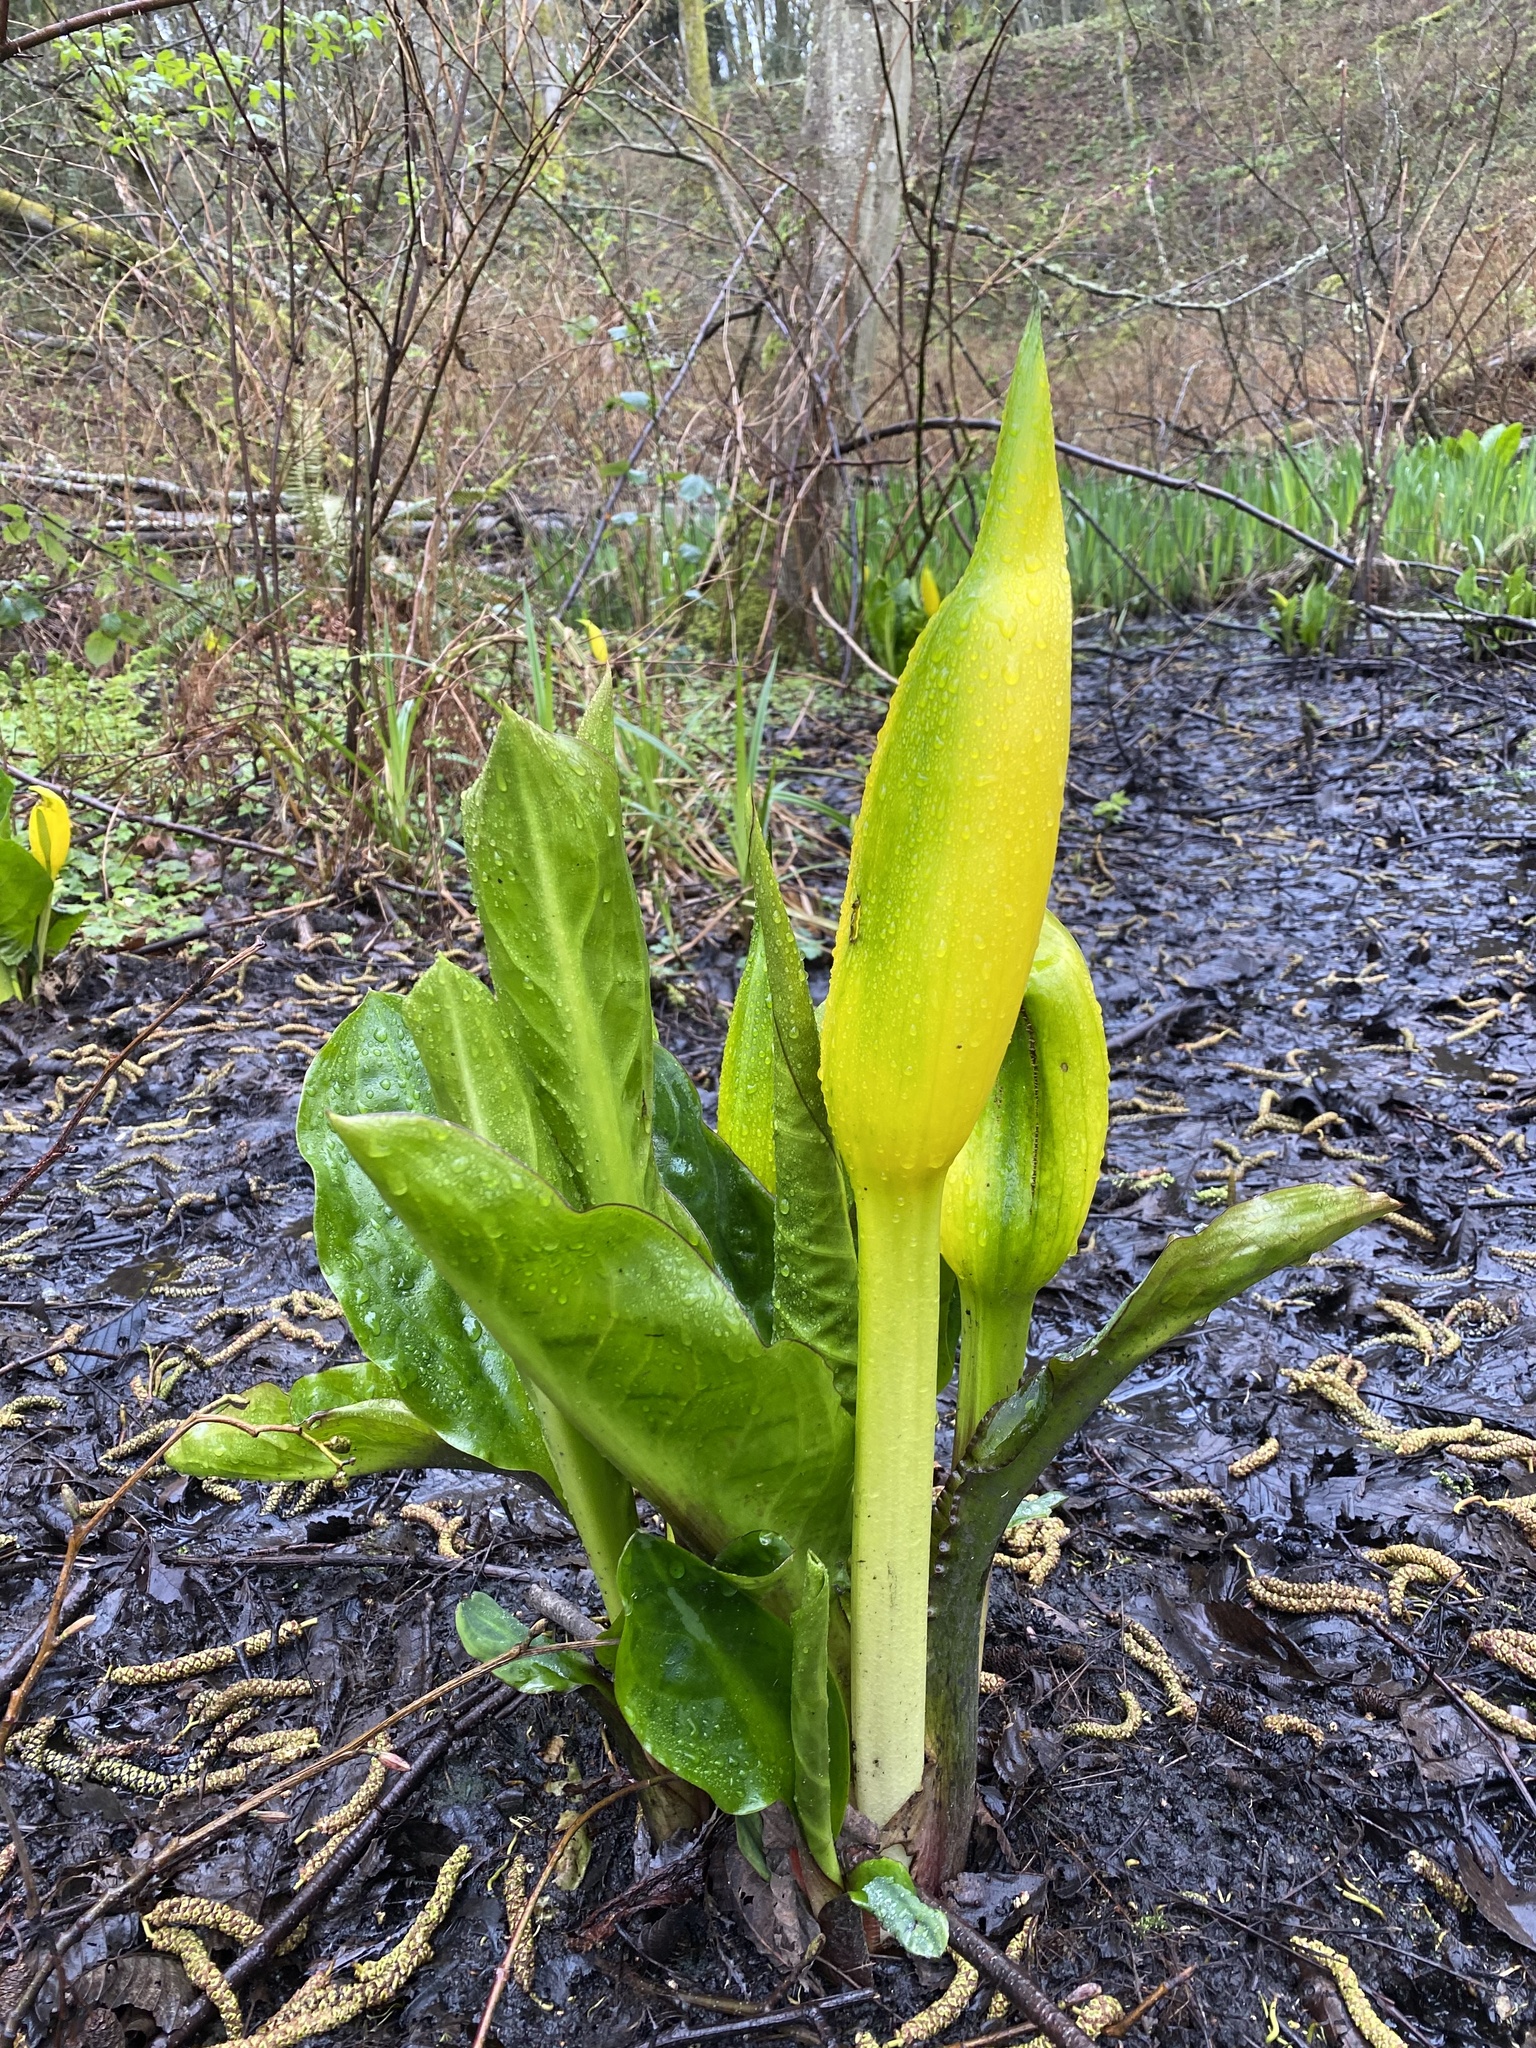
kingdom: Plantae
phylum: Tracheophyta
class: Liliopsida
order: Alismatales
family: Araceae
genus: Lysichiton
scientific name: Lysichiton americanus
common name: American skunk cabbage
